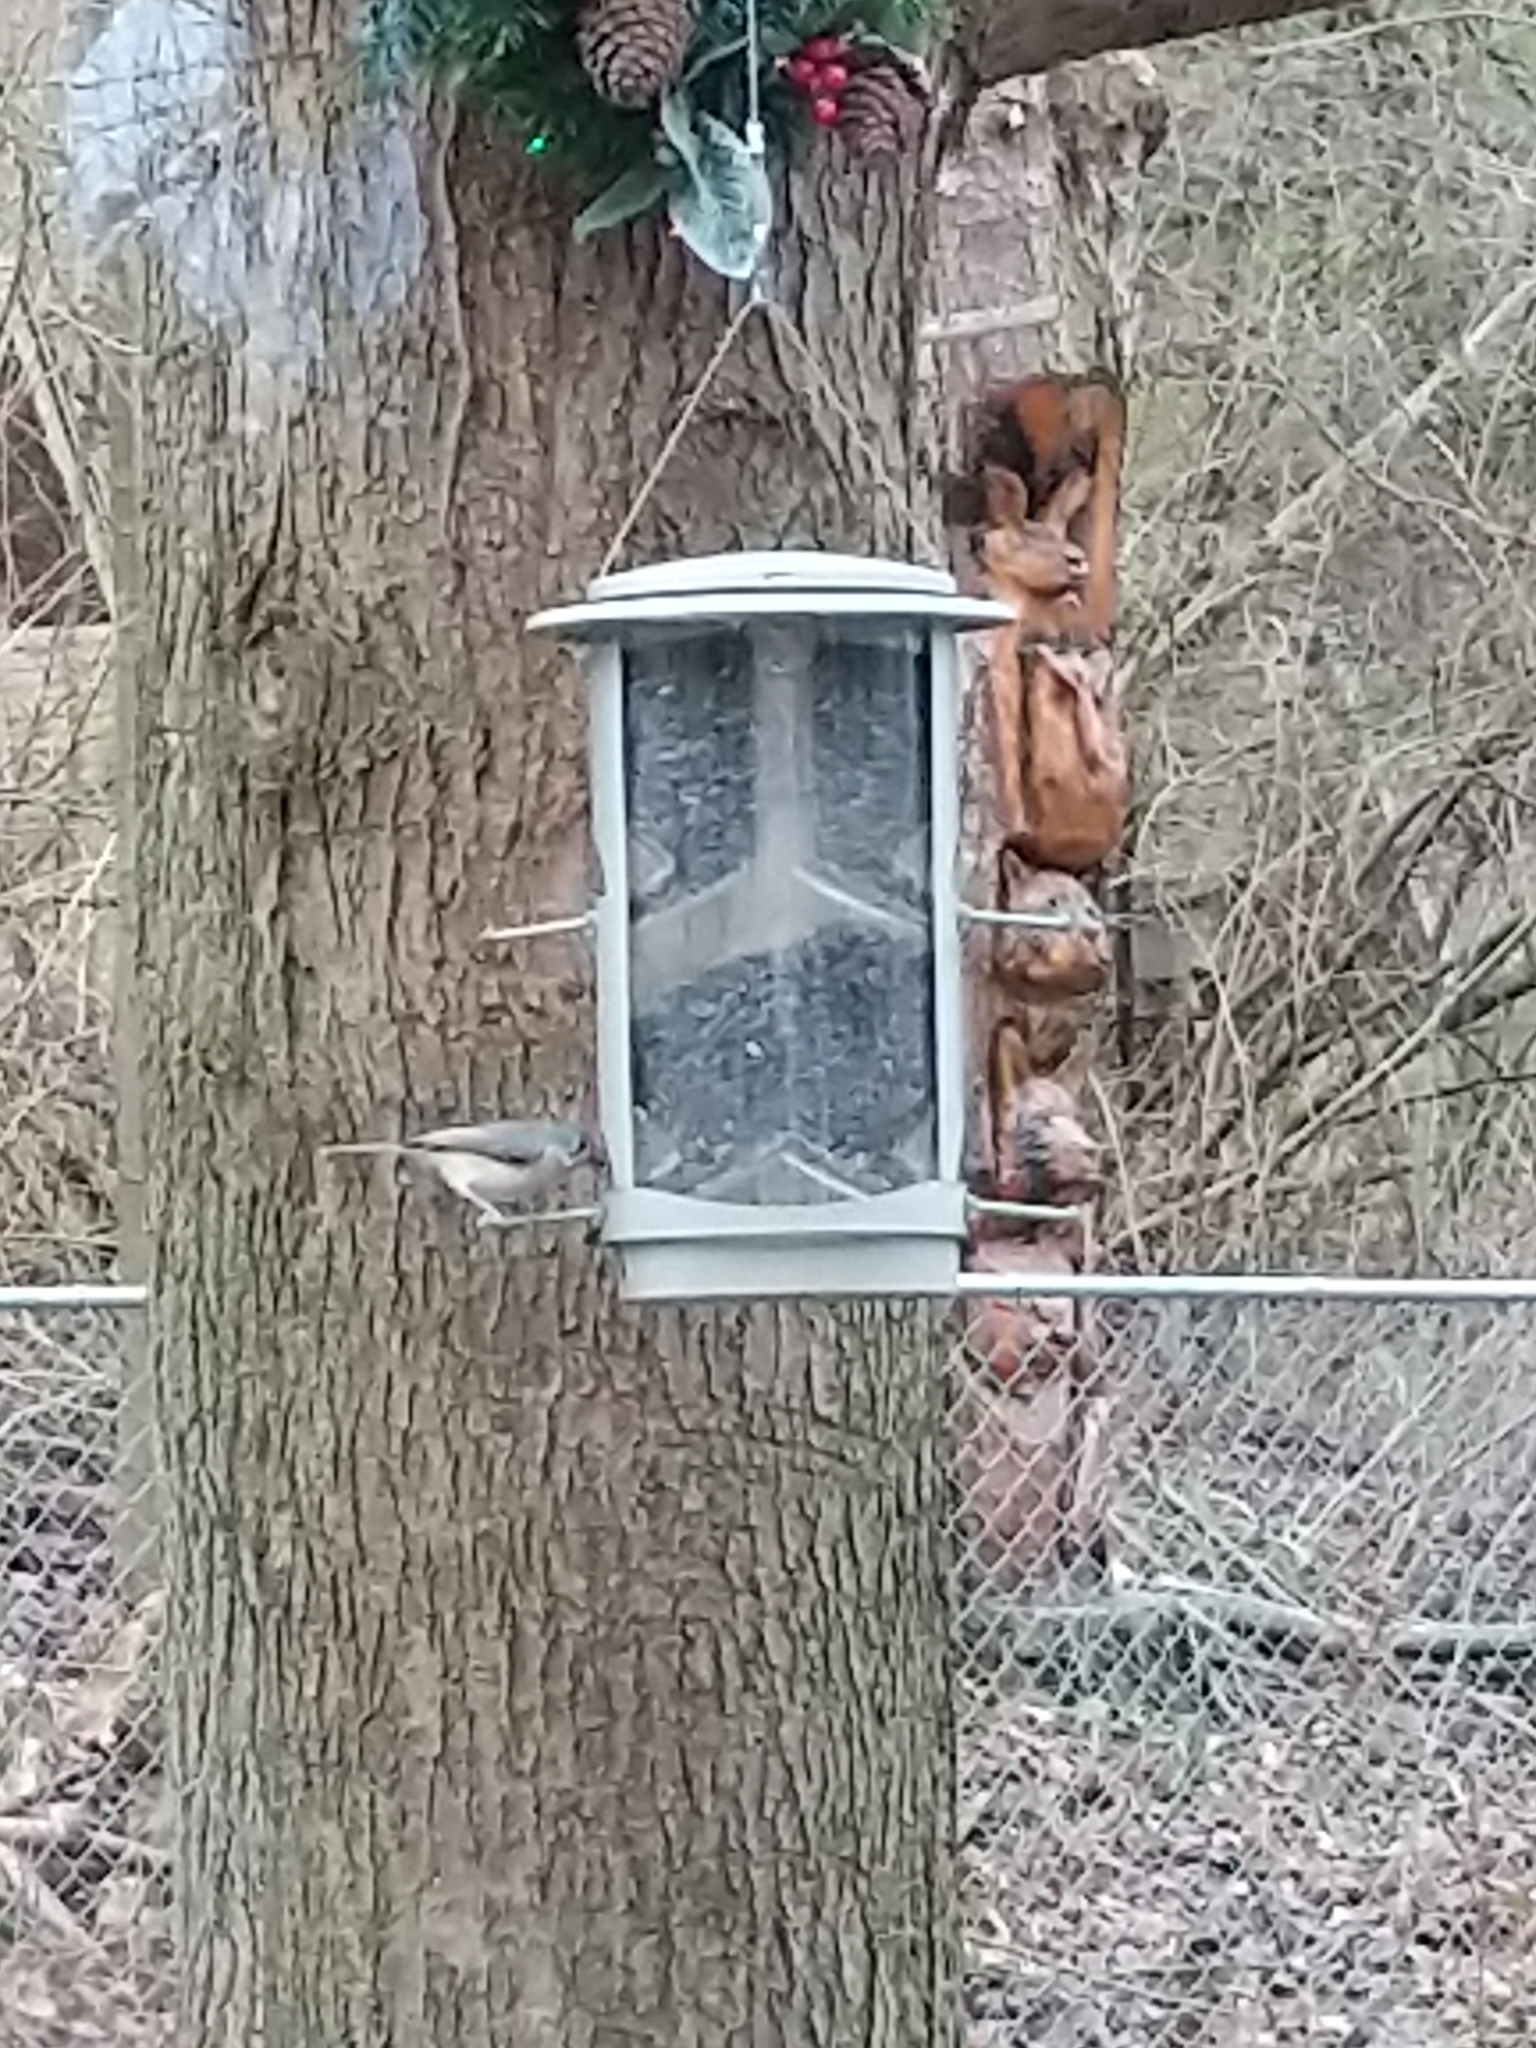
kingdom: Animalia
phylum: Chordata
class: Aves
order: Passeriformes
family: Paridae
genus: Baeolophus
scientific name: Baeolophus bicolor
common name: Tufted titmouse
